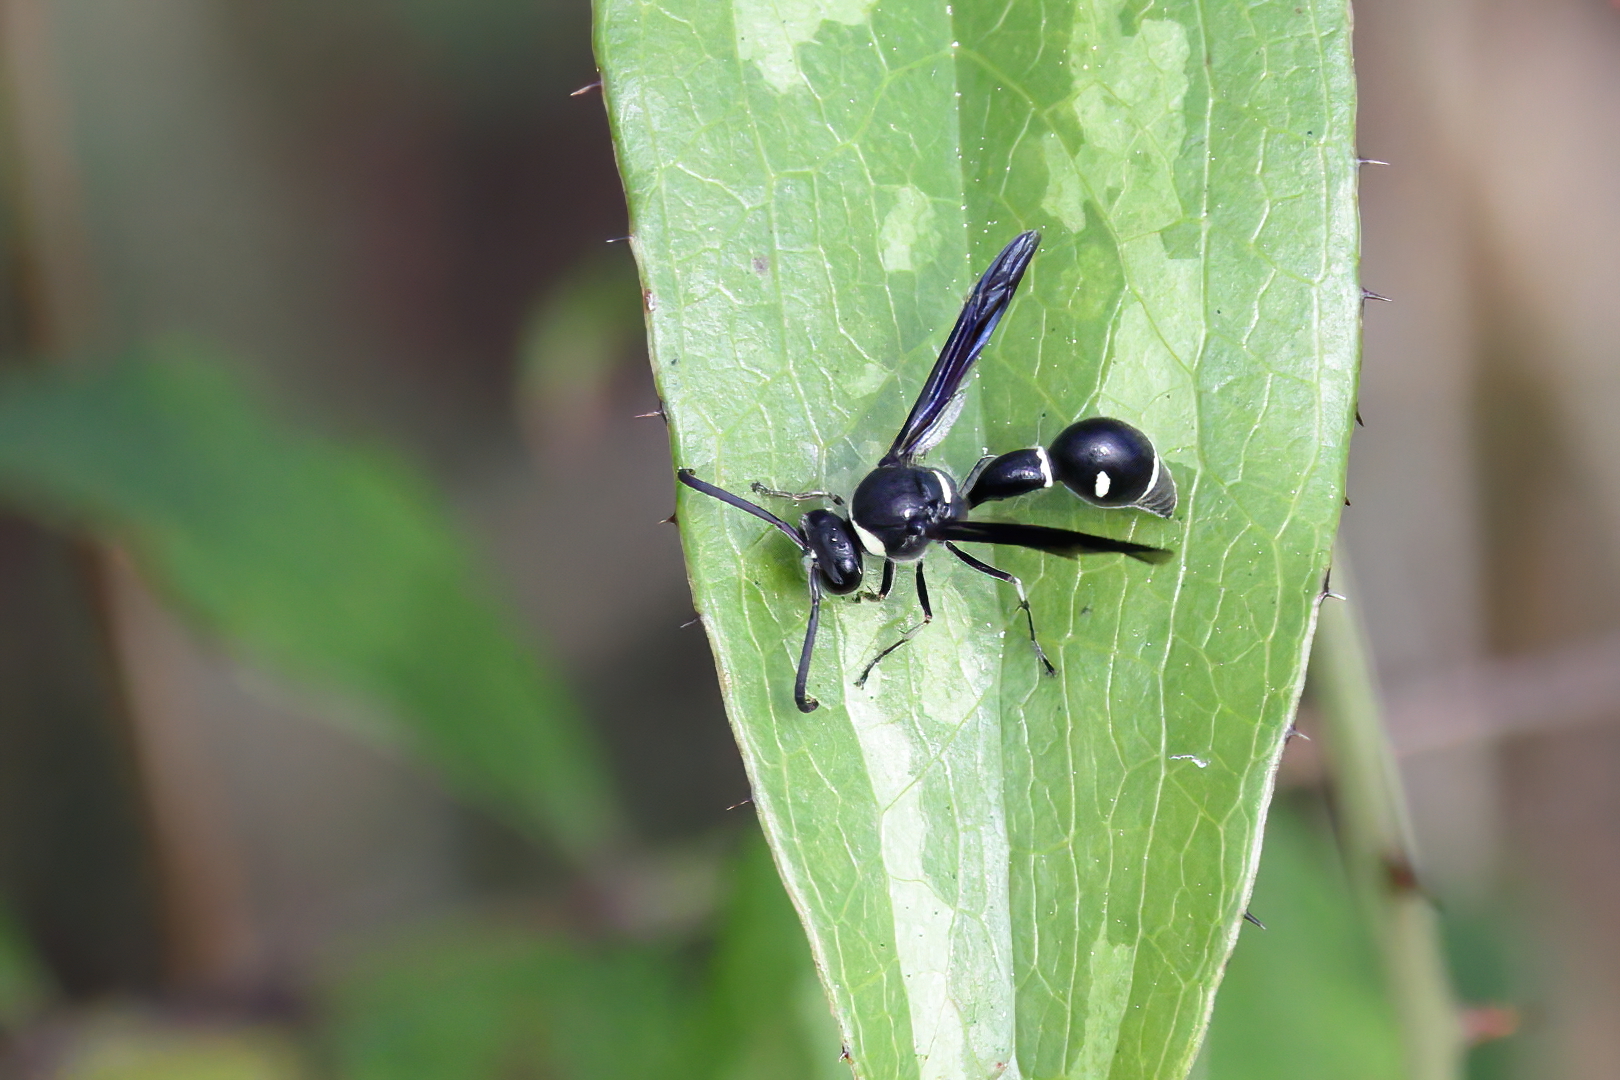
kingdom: Animalia
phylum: Arthropoda
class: Insecta
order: Hymenoptera
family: Vespidae
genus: Eumenes
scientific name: Eumenes fraternus
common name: Fraternal potter wasp
